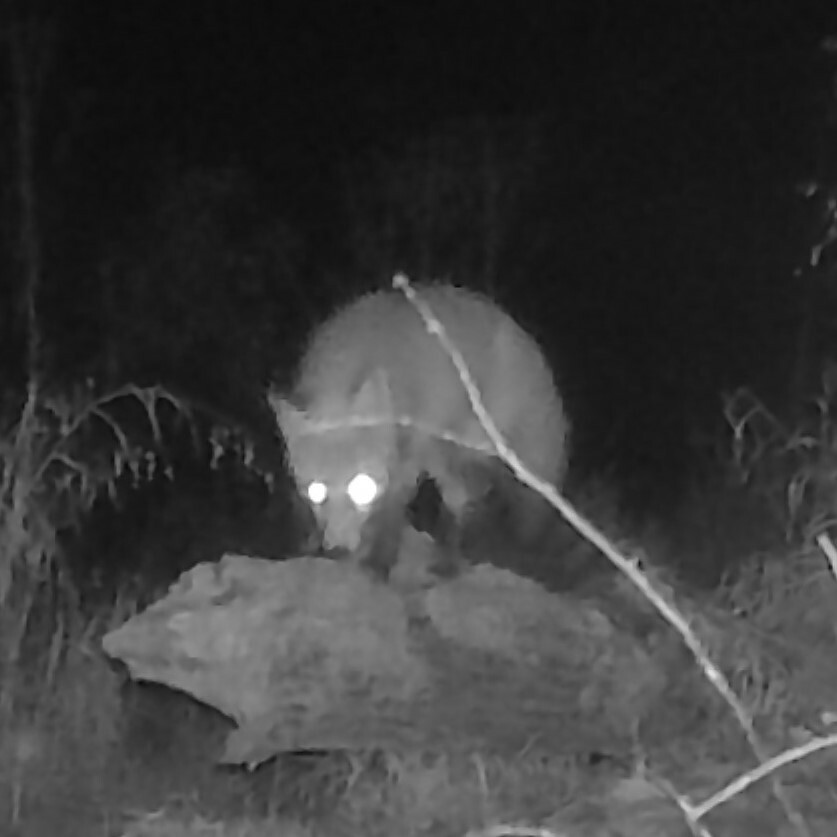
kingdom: Animalia
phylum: Chordata
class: Mammalia
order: Carnivora
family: Canidae
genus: Vulpes
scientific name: Vulpes vulpes
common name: Red fox
